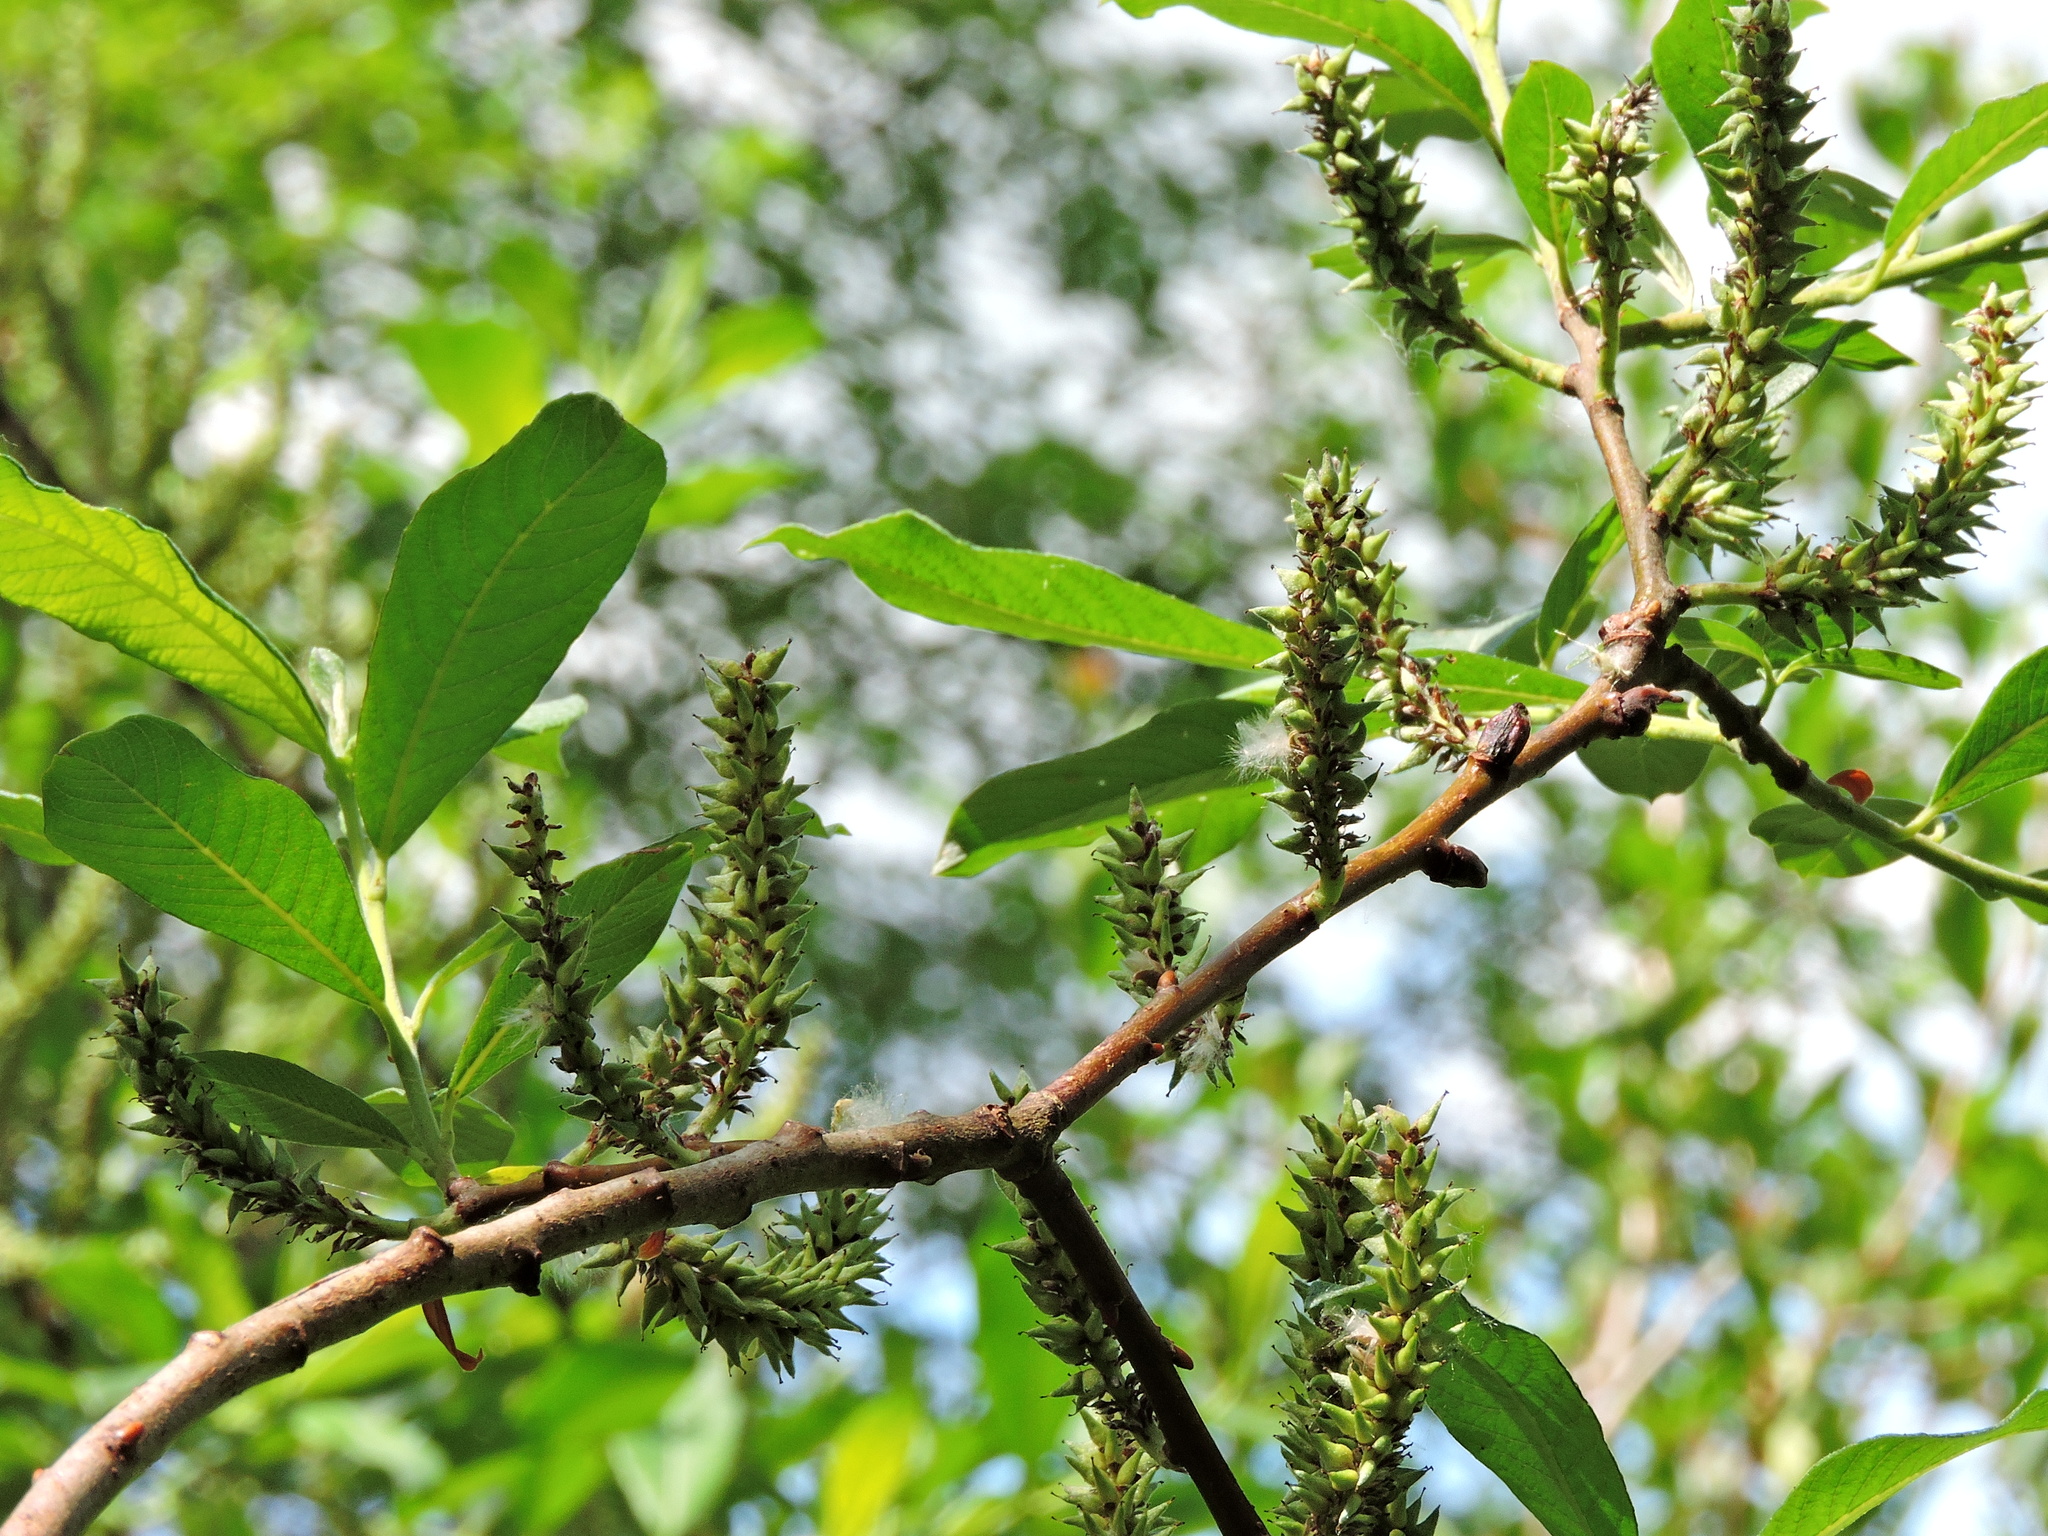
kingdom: Plantae
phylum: Tracheophyta
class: Magnoliopsida
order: Malpighiales
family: Salicaceae
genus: Salix
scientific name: Salix sitchensis
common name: Sitka willow
